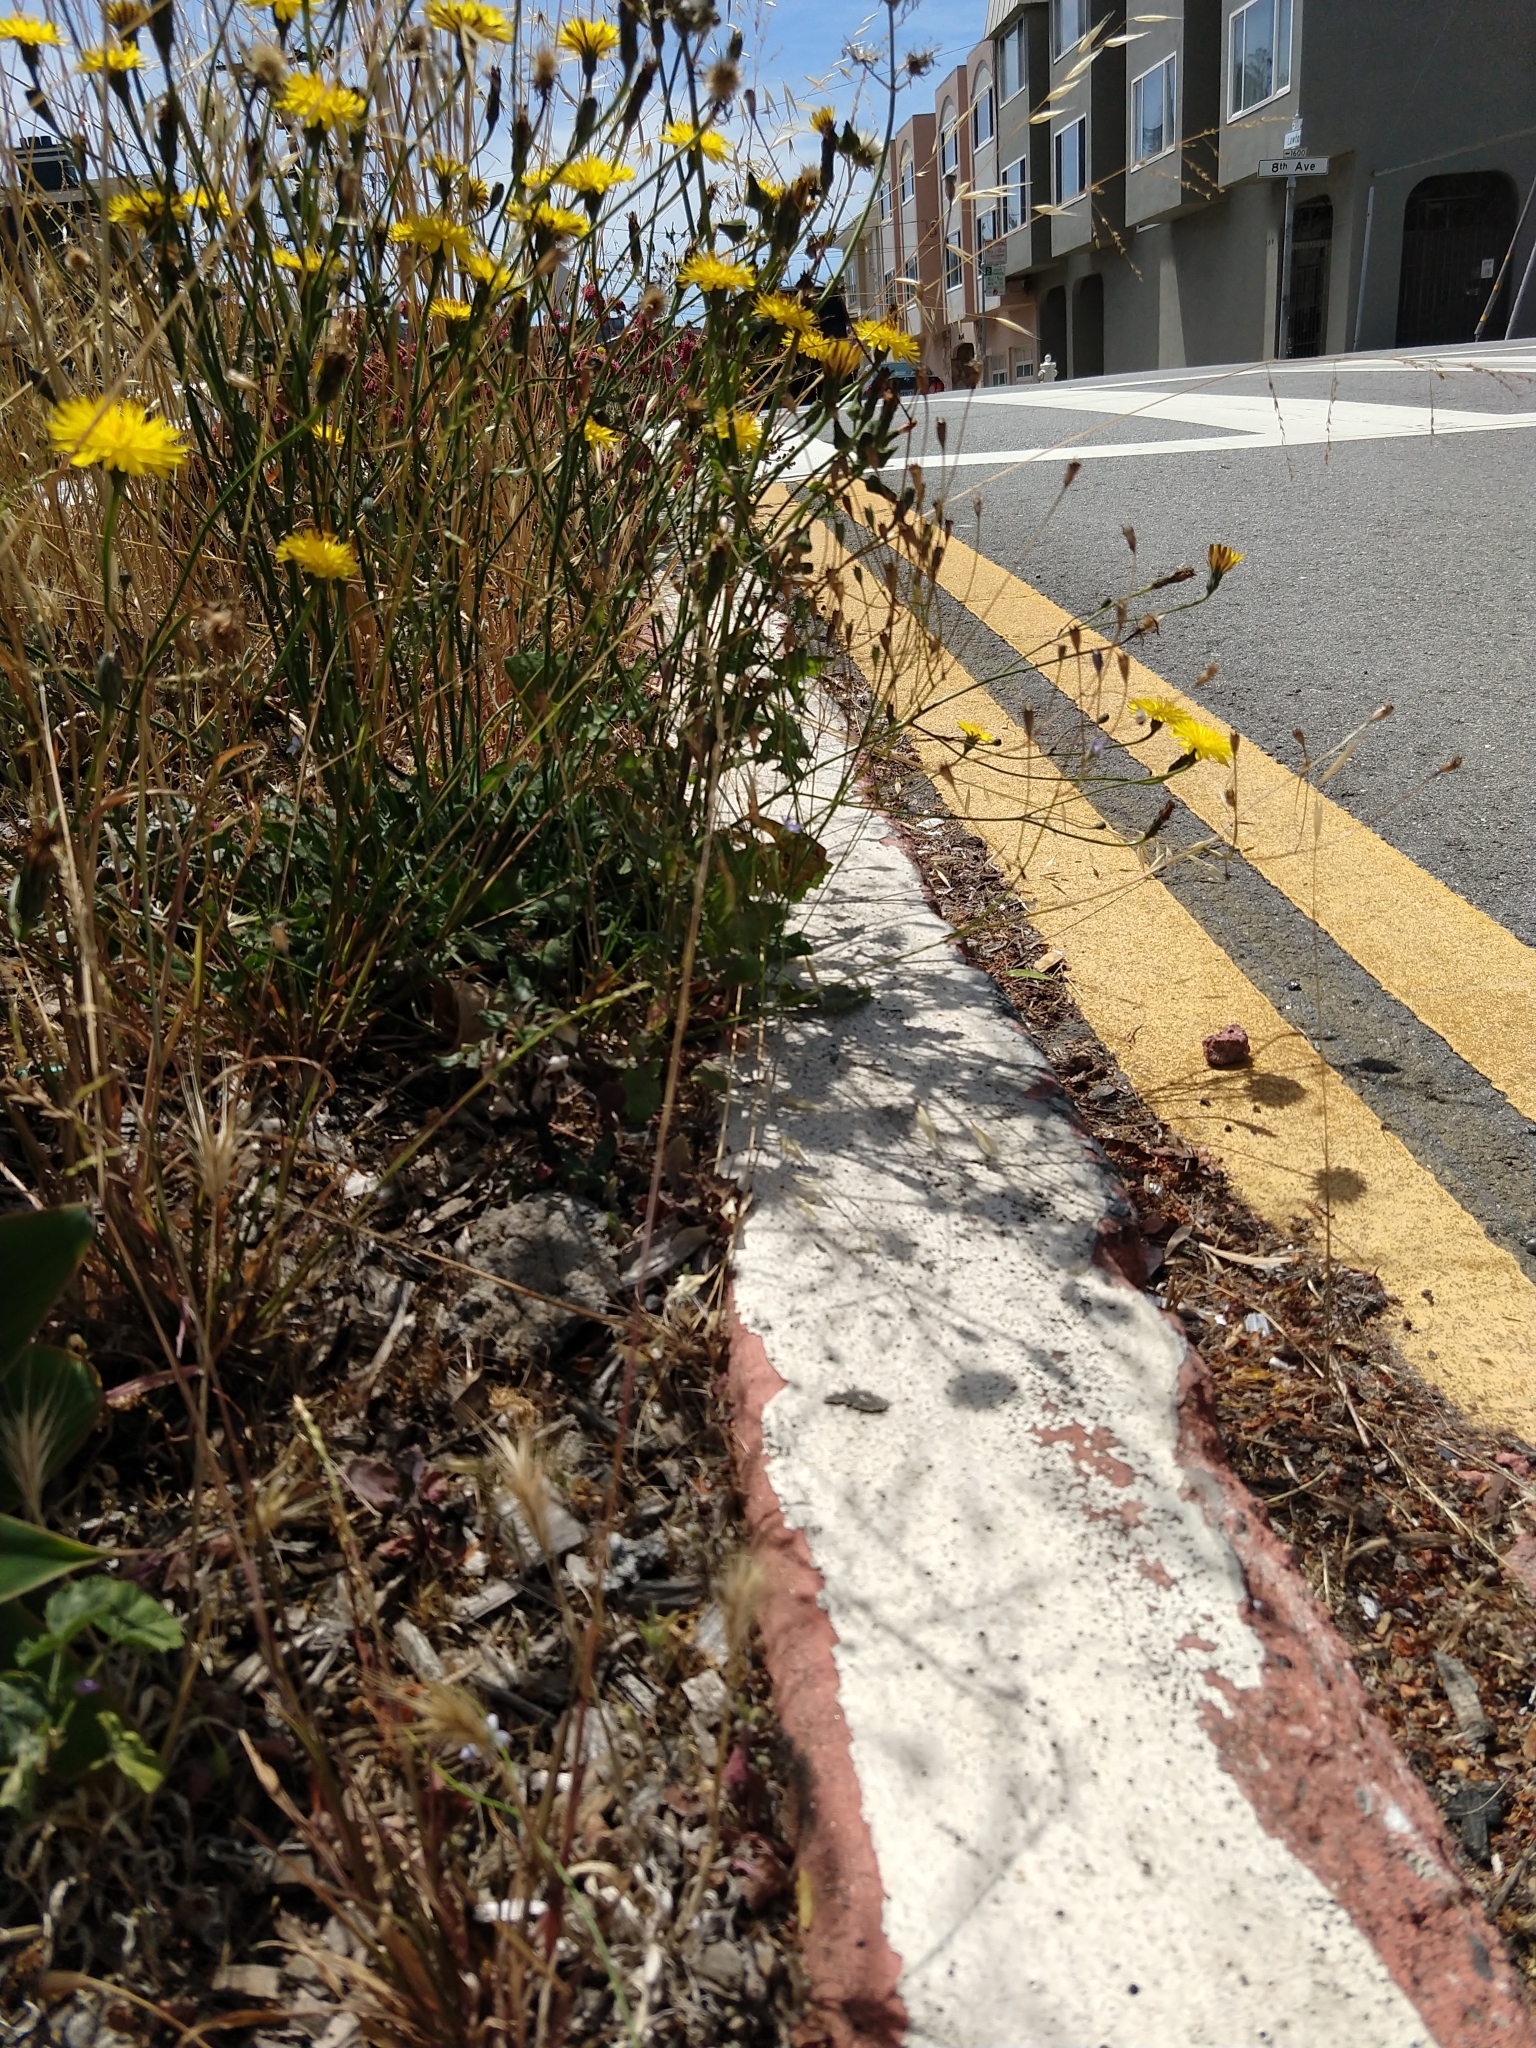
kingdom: Plantae
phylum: Tracheophyta
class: Magnoliopsida
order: Asterales
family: Campanulaceae
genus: Wahlenbergia
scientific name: Wahlenbergia marginata
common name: Southern rockbell
